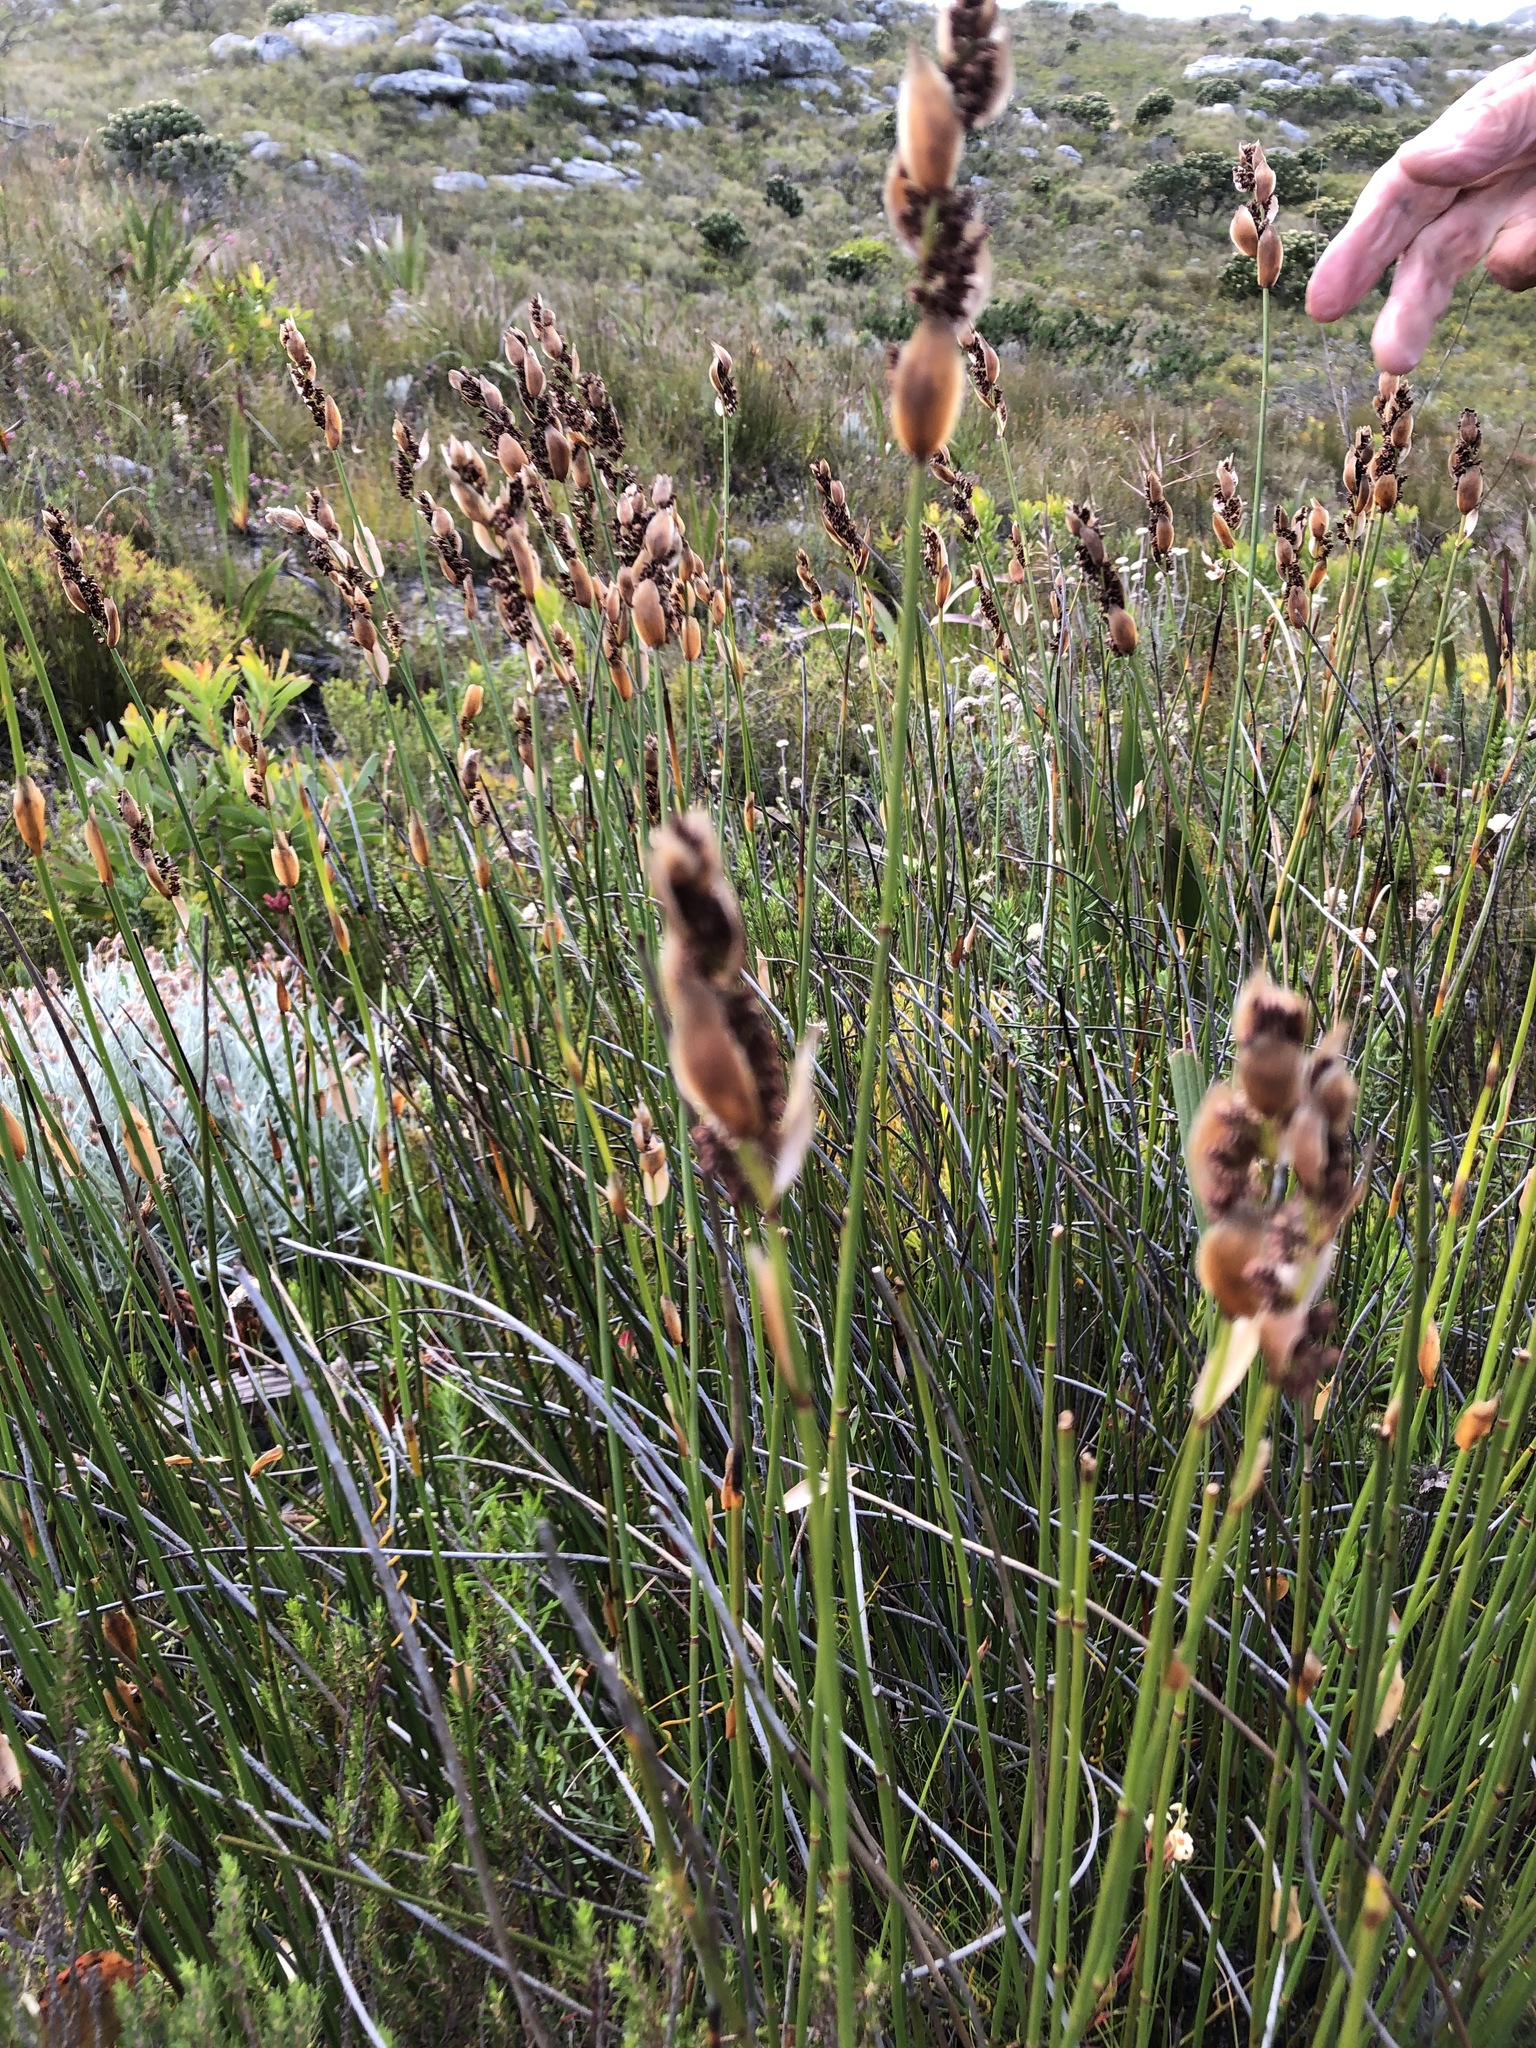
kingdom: Plantae
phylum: Tracheophyta
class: Liliopsida
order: Poales
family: Restionaceae
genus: Elegia
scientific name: Elegia juncea
